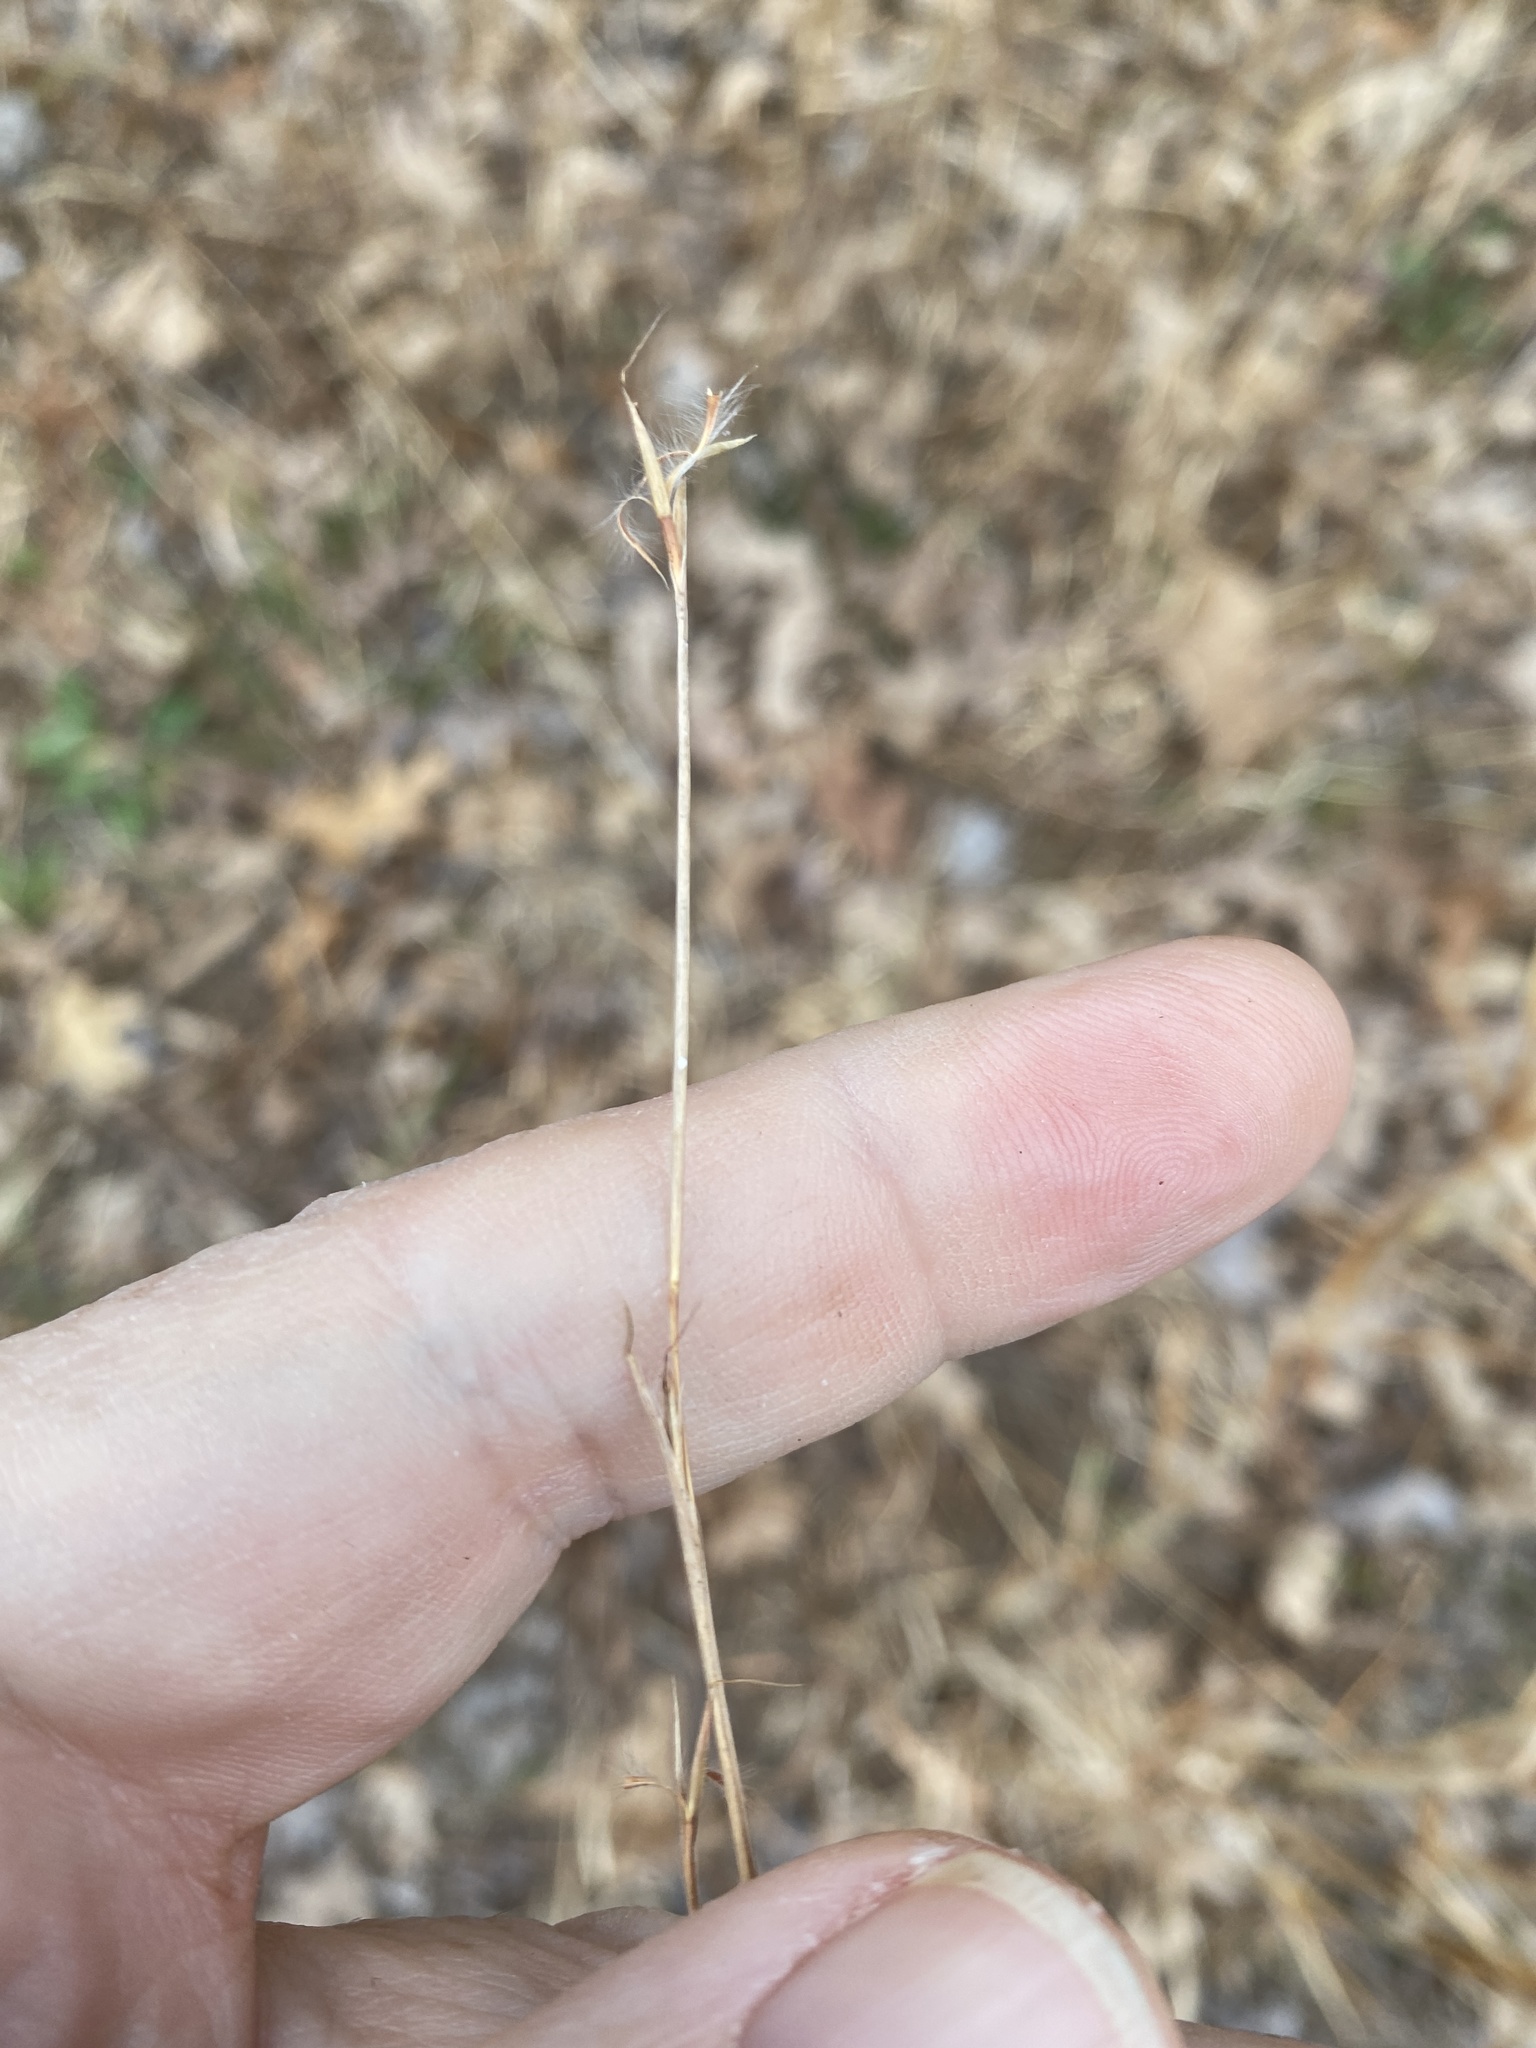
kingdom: Plantae
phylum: Tracheophyta
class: Liliopsida
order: Poales
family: Poaceae
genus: Schizachyrium
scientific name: Schizachyrium scoparium
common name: Little bluestem
